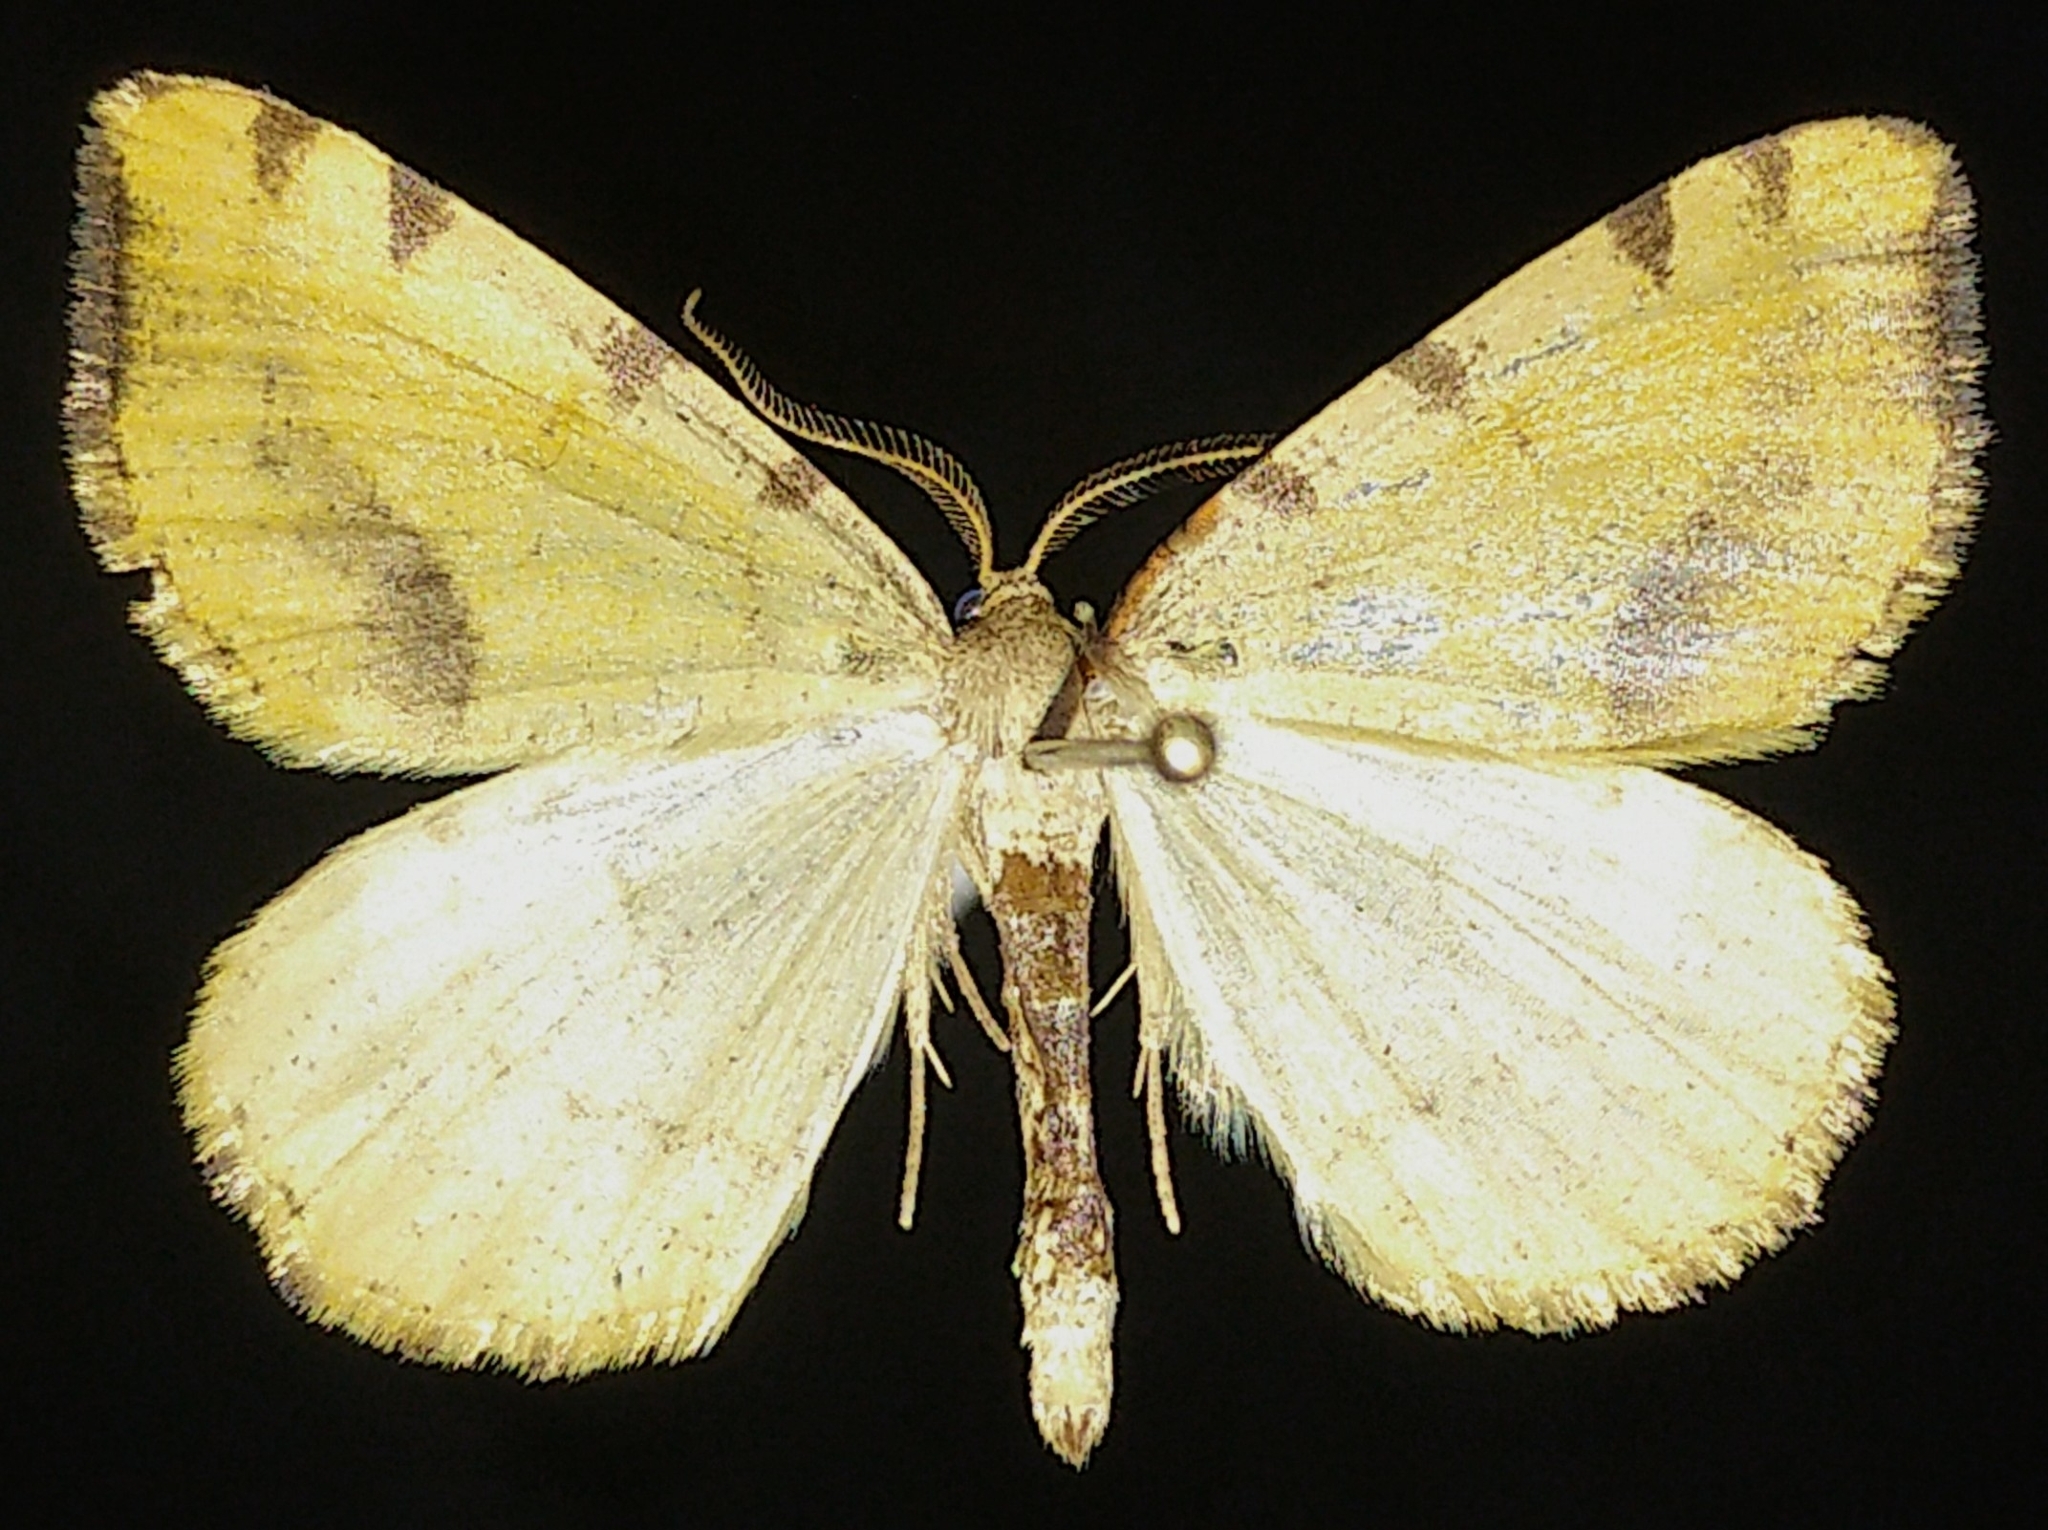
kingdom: Animalia
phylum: Arthropoda
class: Insecta
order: Lepidoptera
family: Geometridae
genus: Macaria
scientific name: Macaria occiduaria
